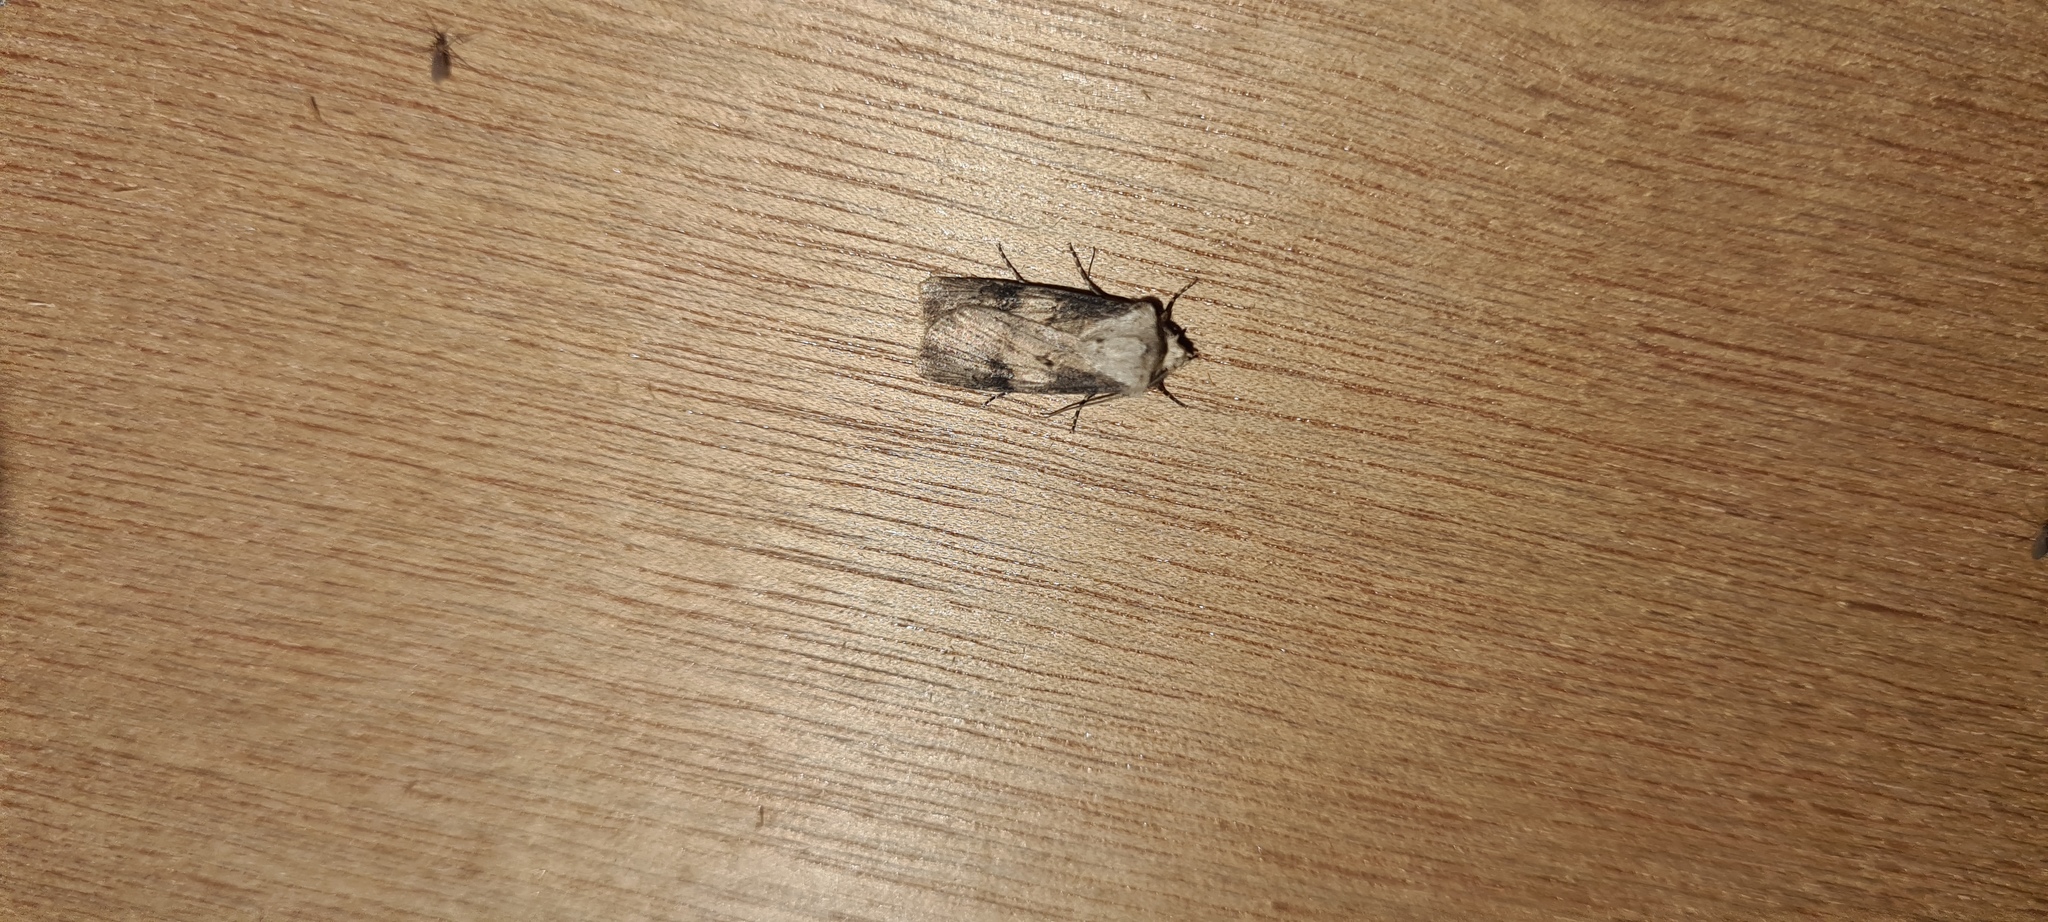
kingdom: Animalia
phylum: Arthropoda
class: Insecta
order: Lepidoptera
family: Noctuidae
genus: Agrotis
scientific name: Agrotis puta
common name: Shuttle-shaped dart
